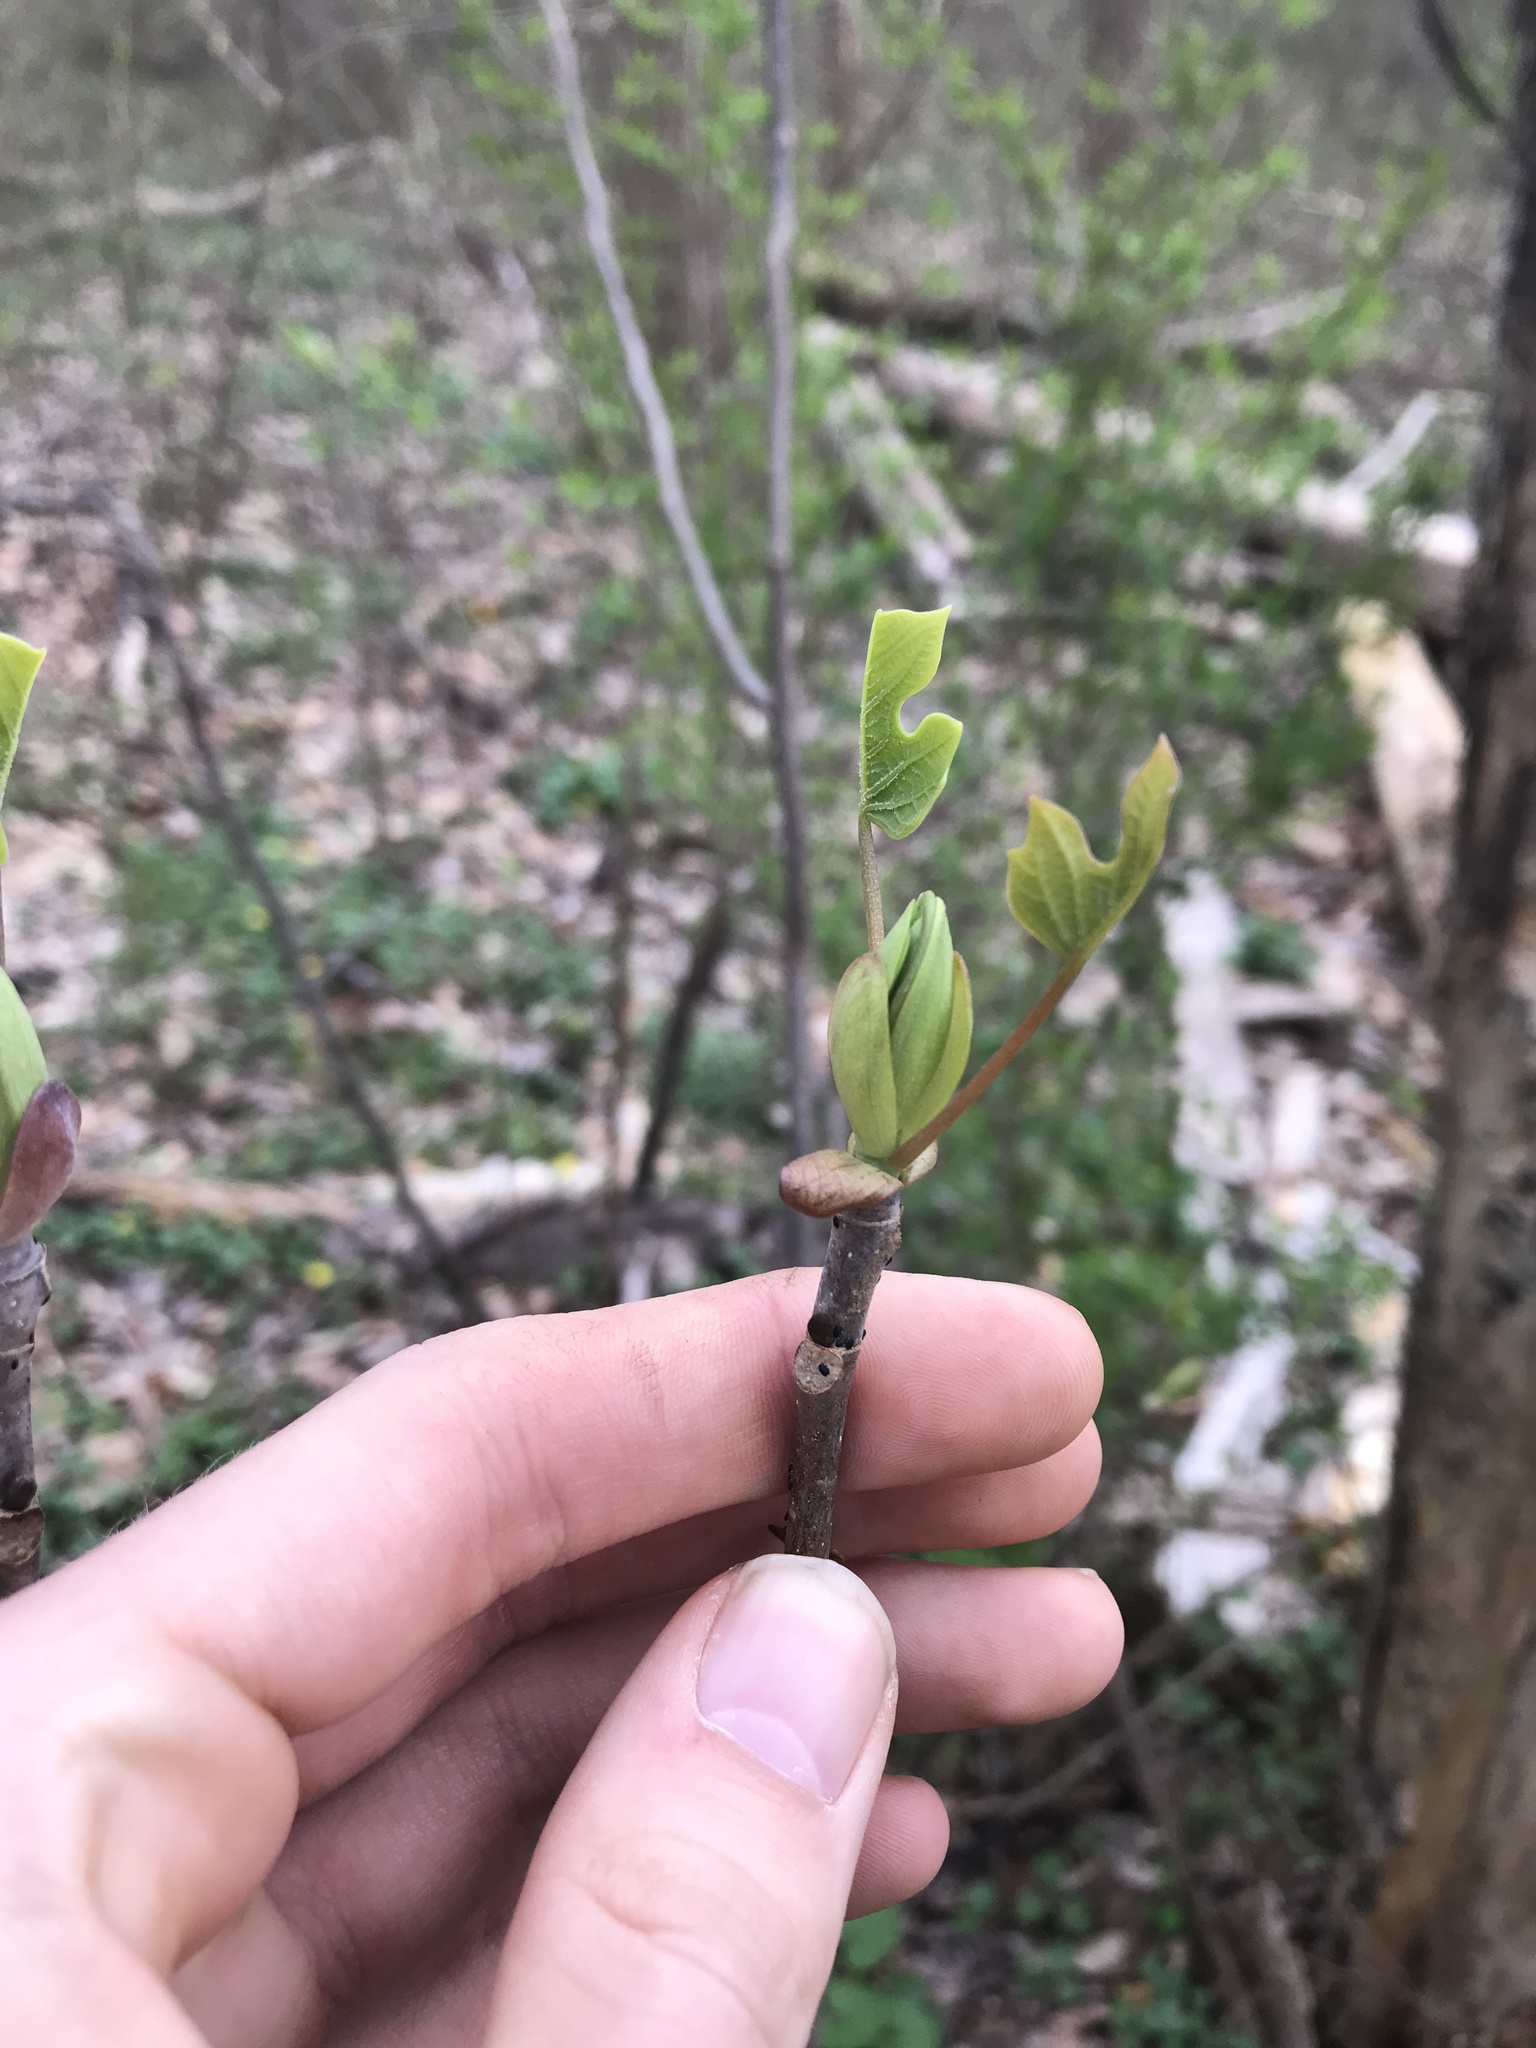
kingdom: Plantae
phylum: Tracheophyta
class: Magnoliopsida
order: Magnoliales
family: Magnoliaceae
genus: Liriodendron
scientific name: Liriodendron tulipifera
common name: Tulip tree
